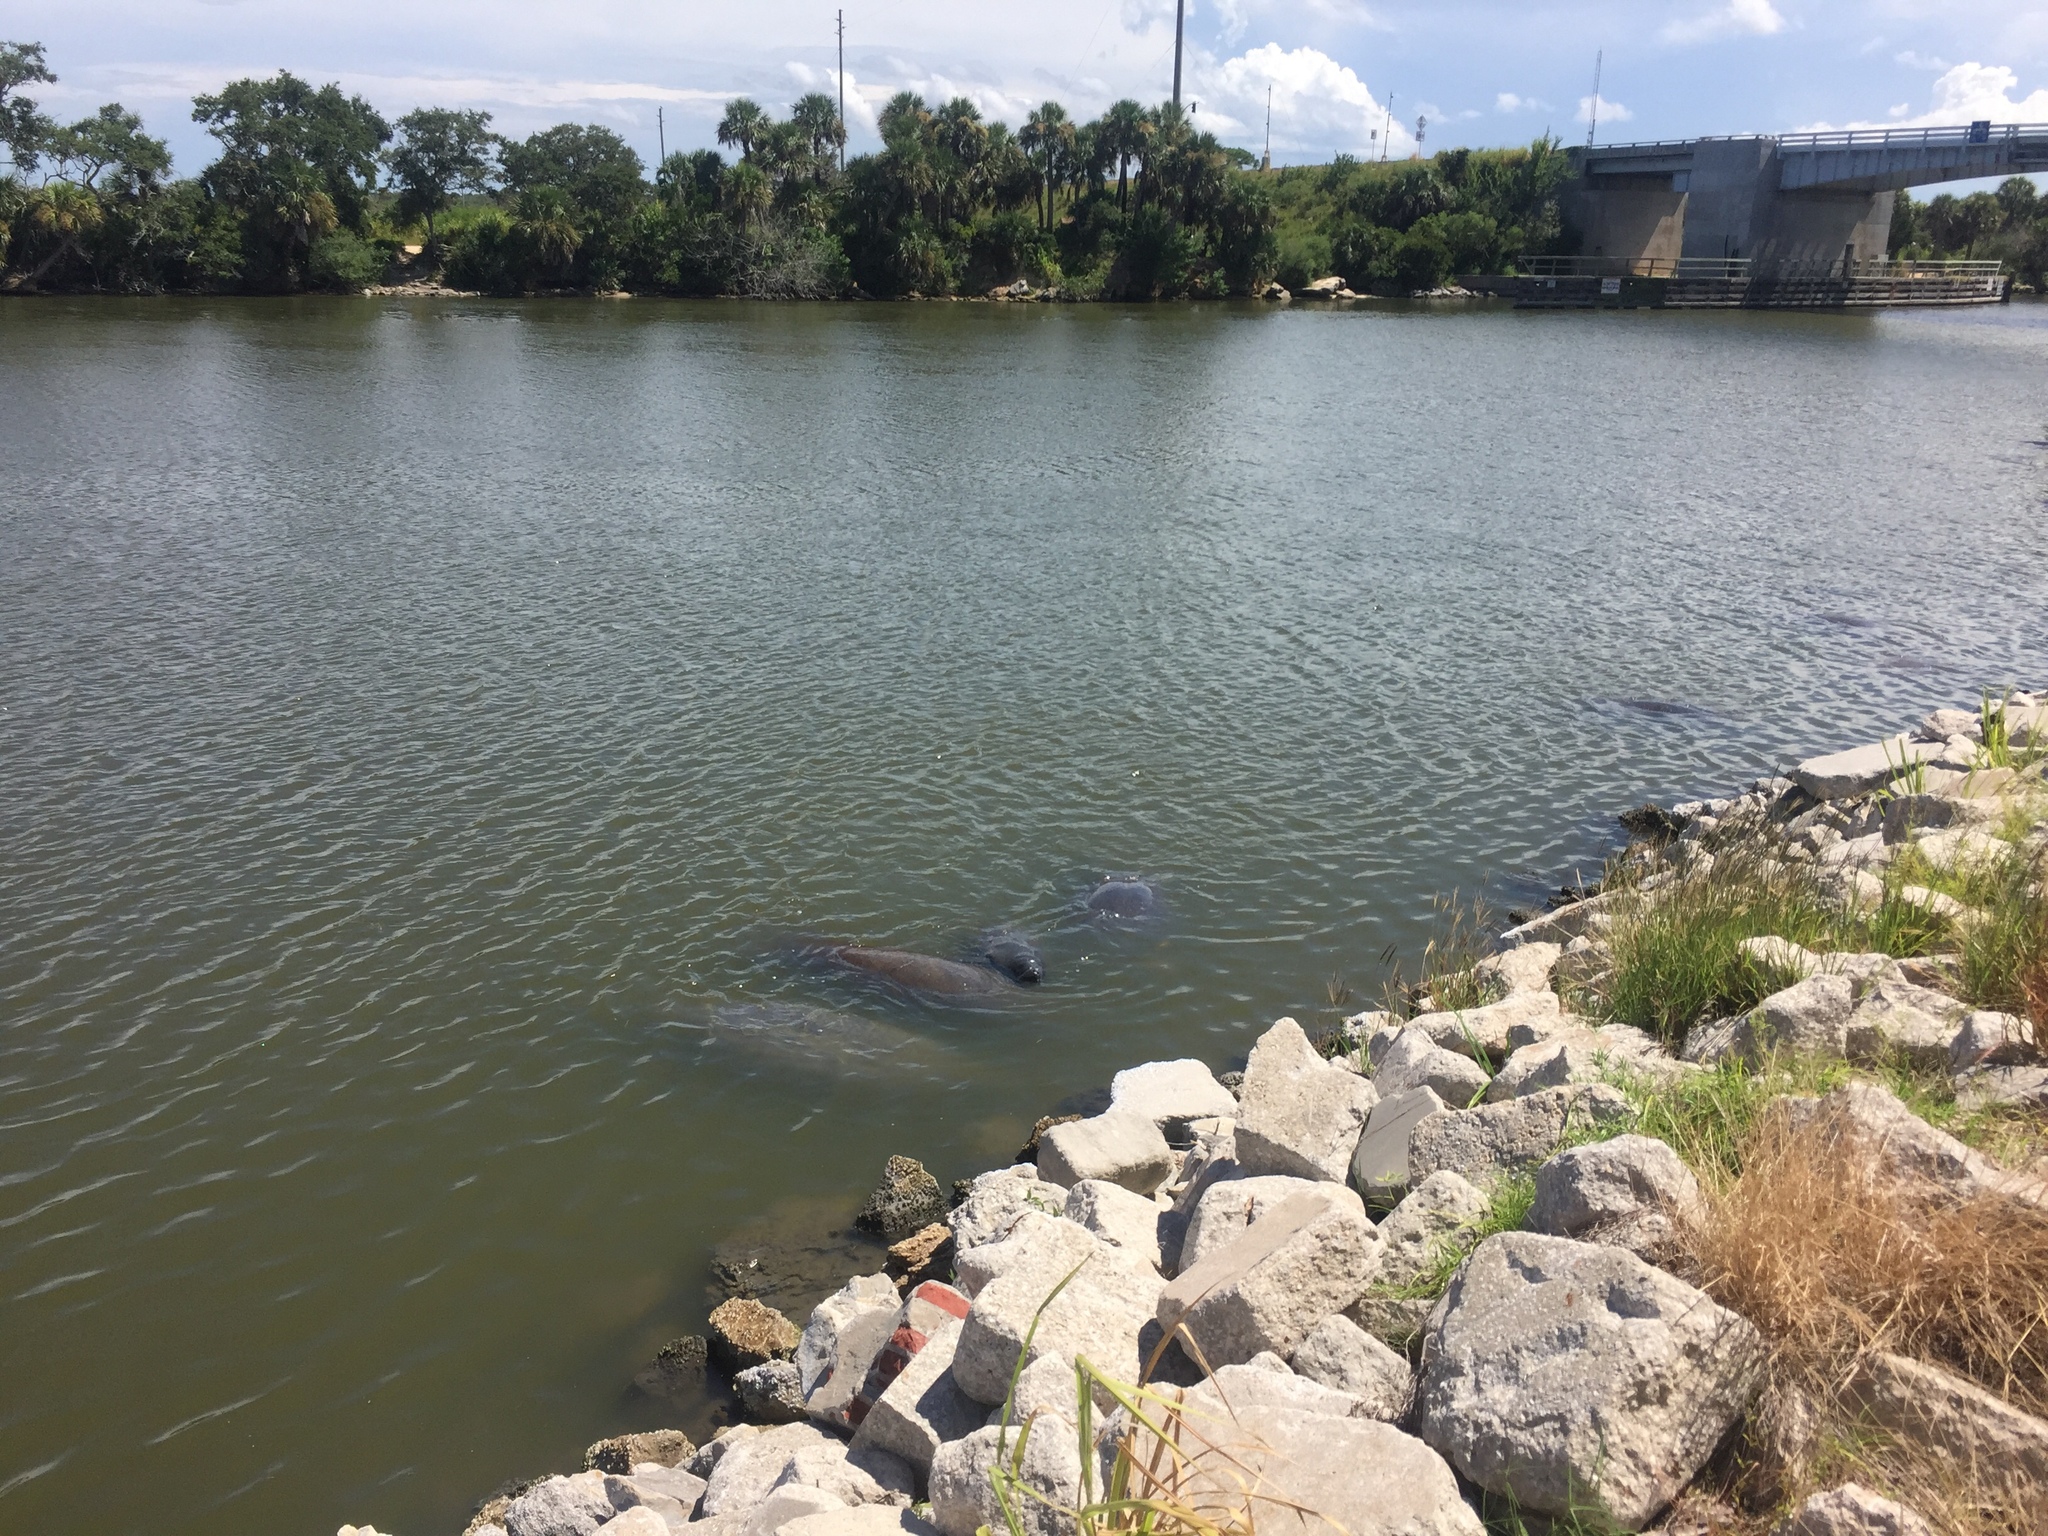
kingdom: Animalia
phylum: Chordata
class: Mammalia
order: Sirenia
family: Trichechidae
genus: Trichechus
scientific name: Trichechus manatus
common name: West indian manatee
